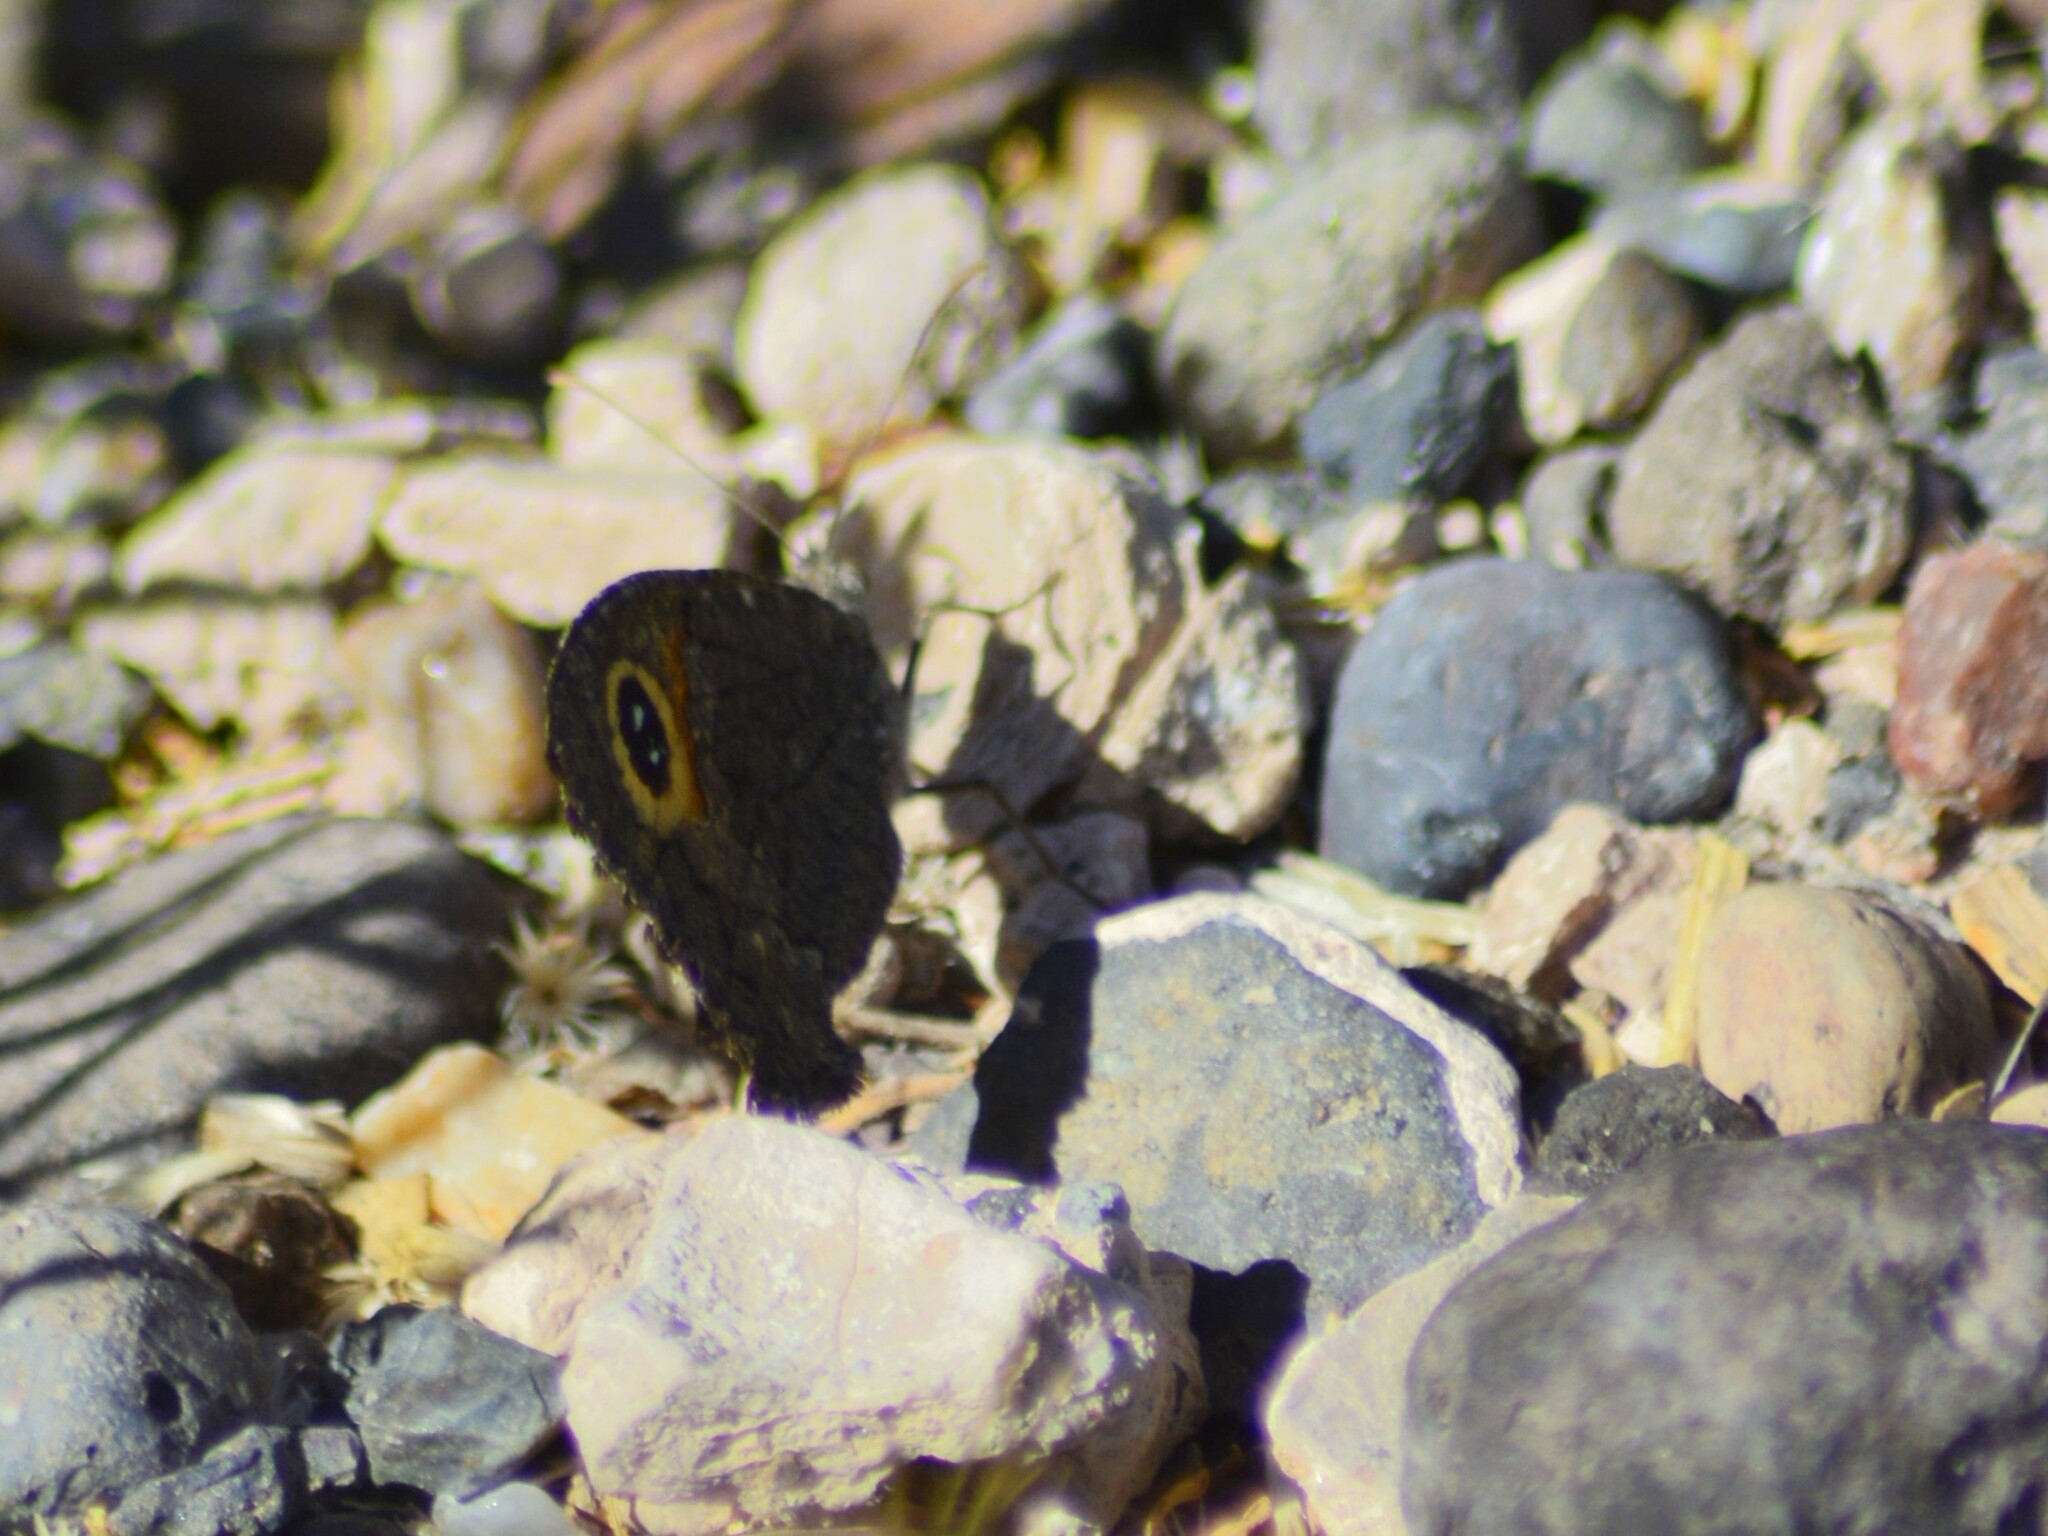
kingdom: Animalia
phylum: Arthropoda
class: Insecta
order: Lepidoptera
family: Nymphalidae
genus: Haywardella
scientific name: Haywardella edmondsii
